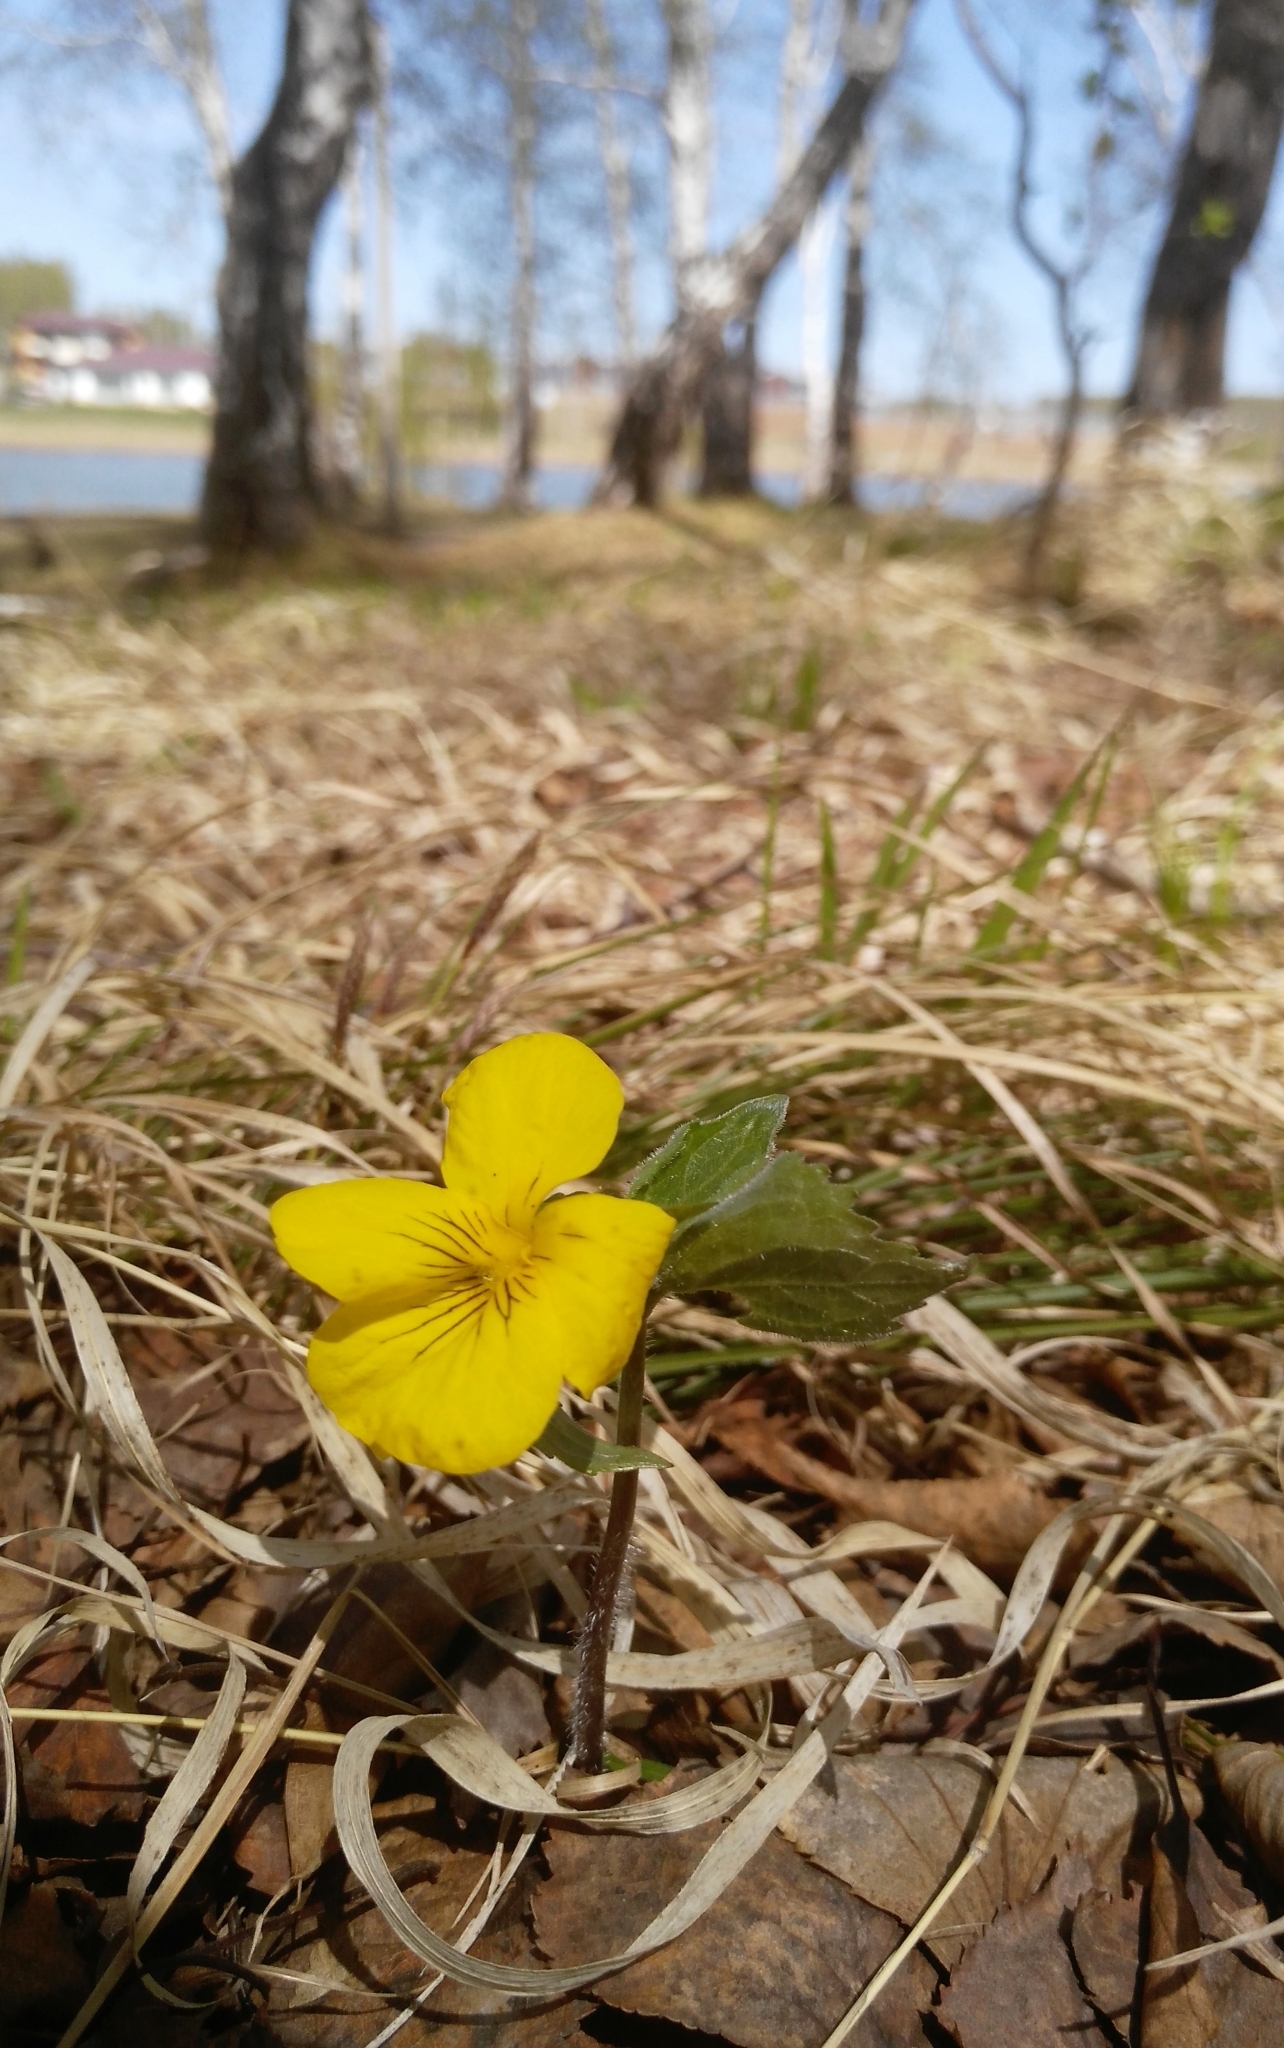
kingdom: Plantae
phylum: Tracheophyta
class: Magnoliopsida
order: Malpighiales
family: Violaceae
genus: Viola
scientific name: Viola uniflora
